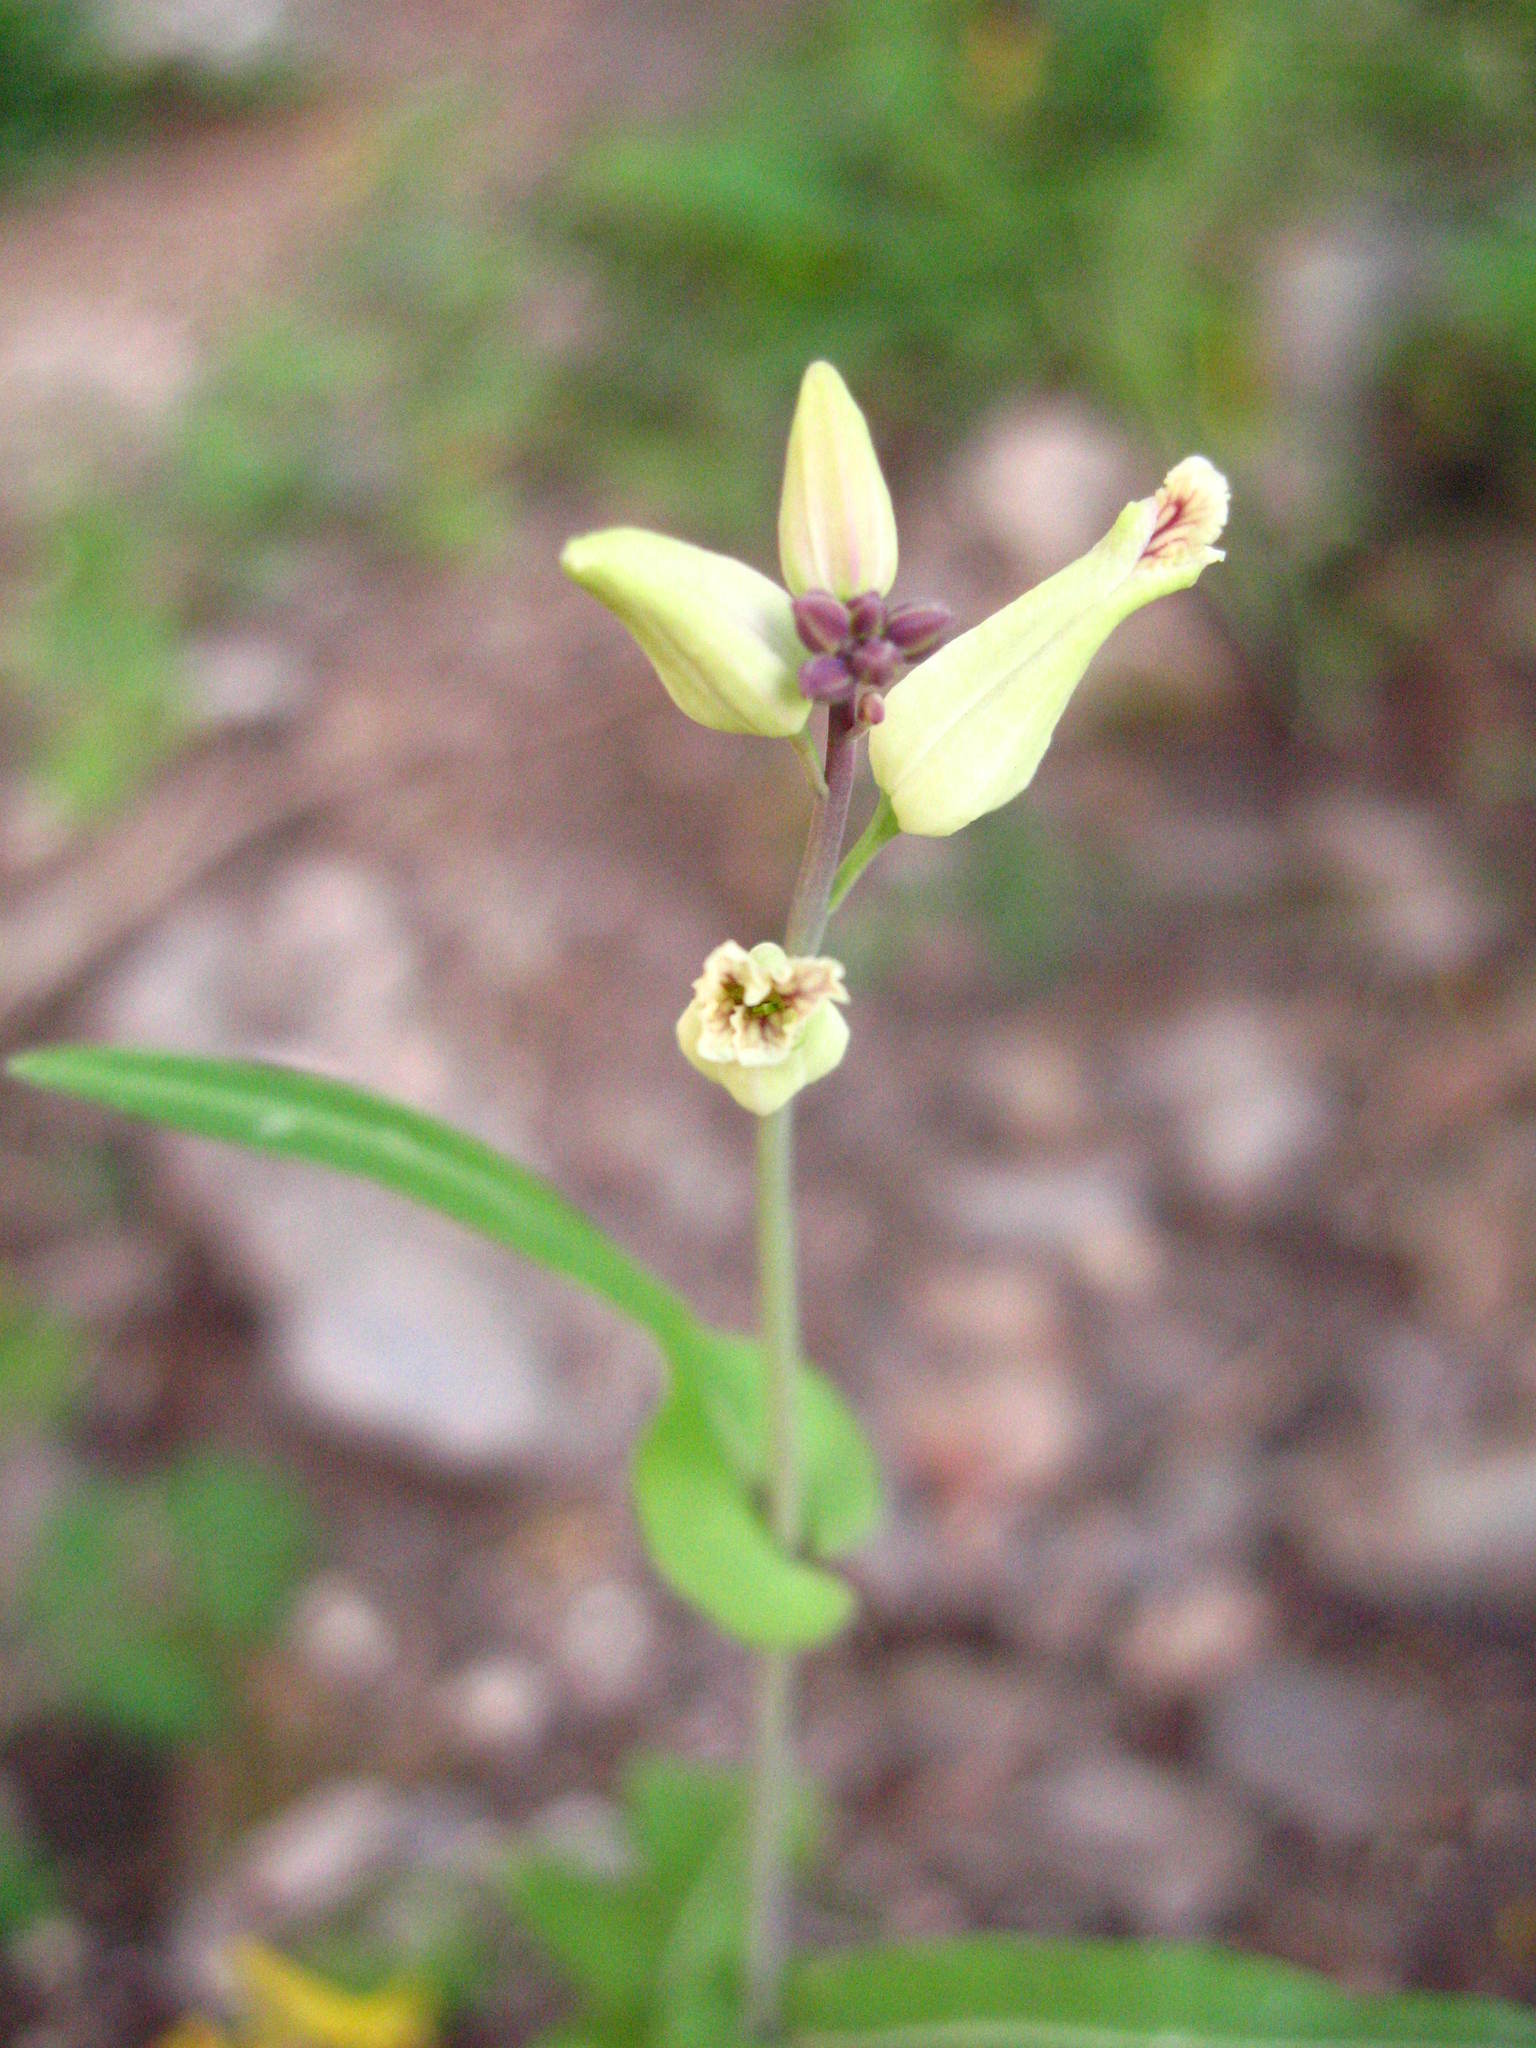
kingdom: Plantae
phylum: Tracheophyta
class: Magnoliopsida
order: Brassicales
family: Brassicaceae
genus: Streptanthus
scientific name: Streptanthus carinatus
